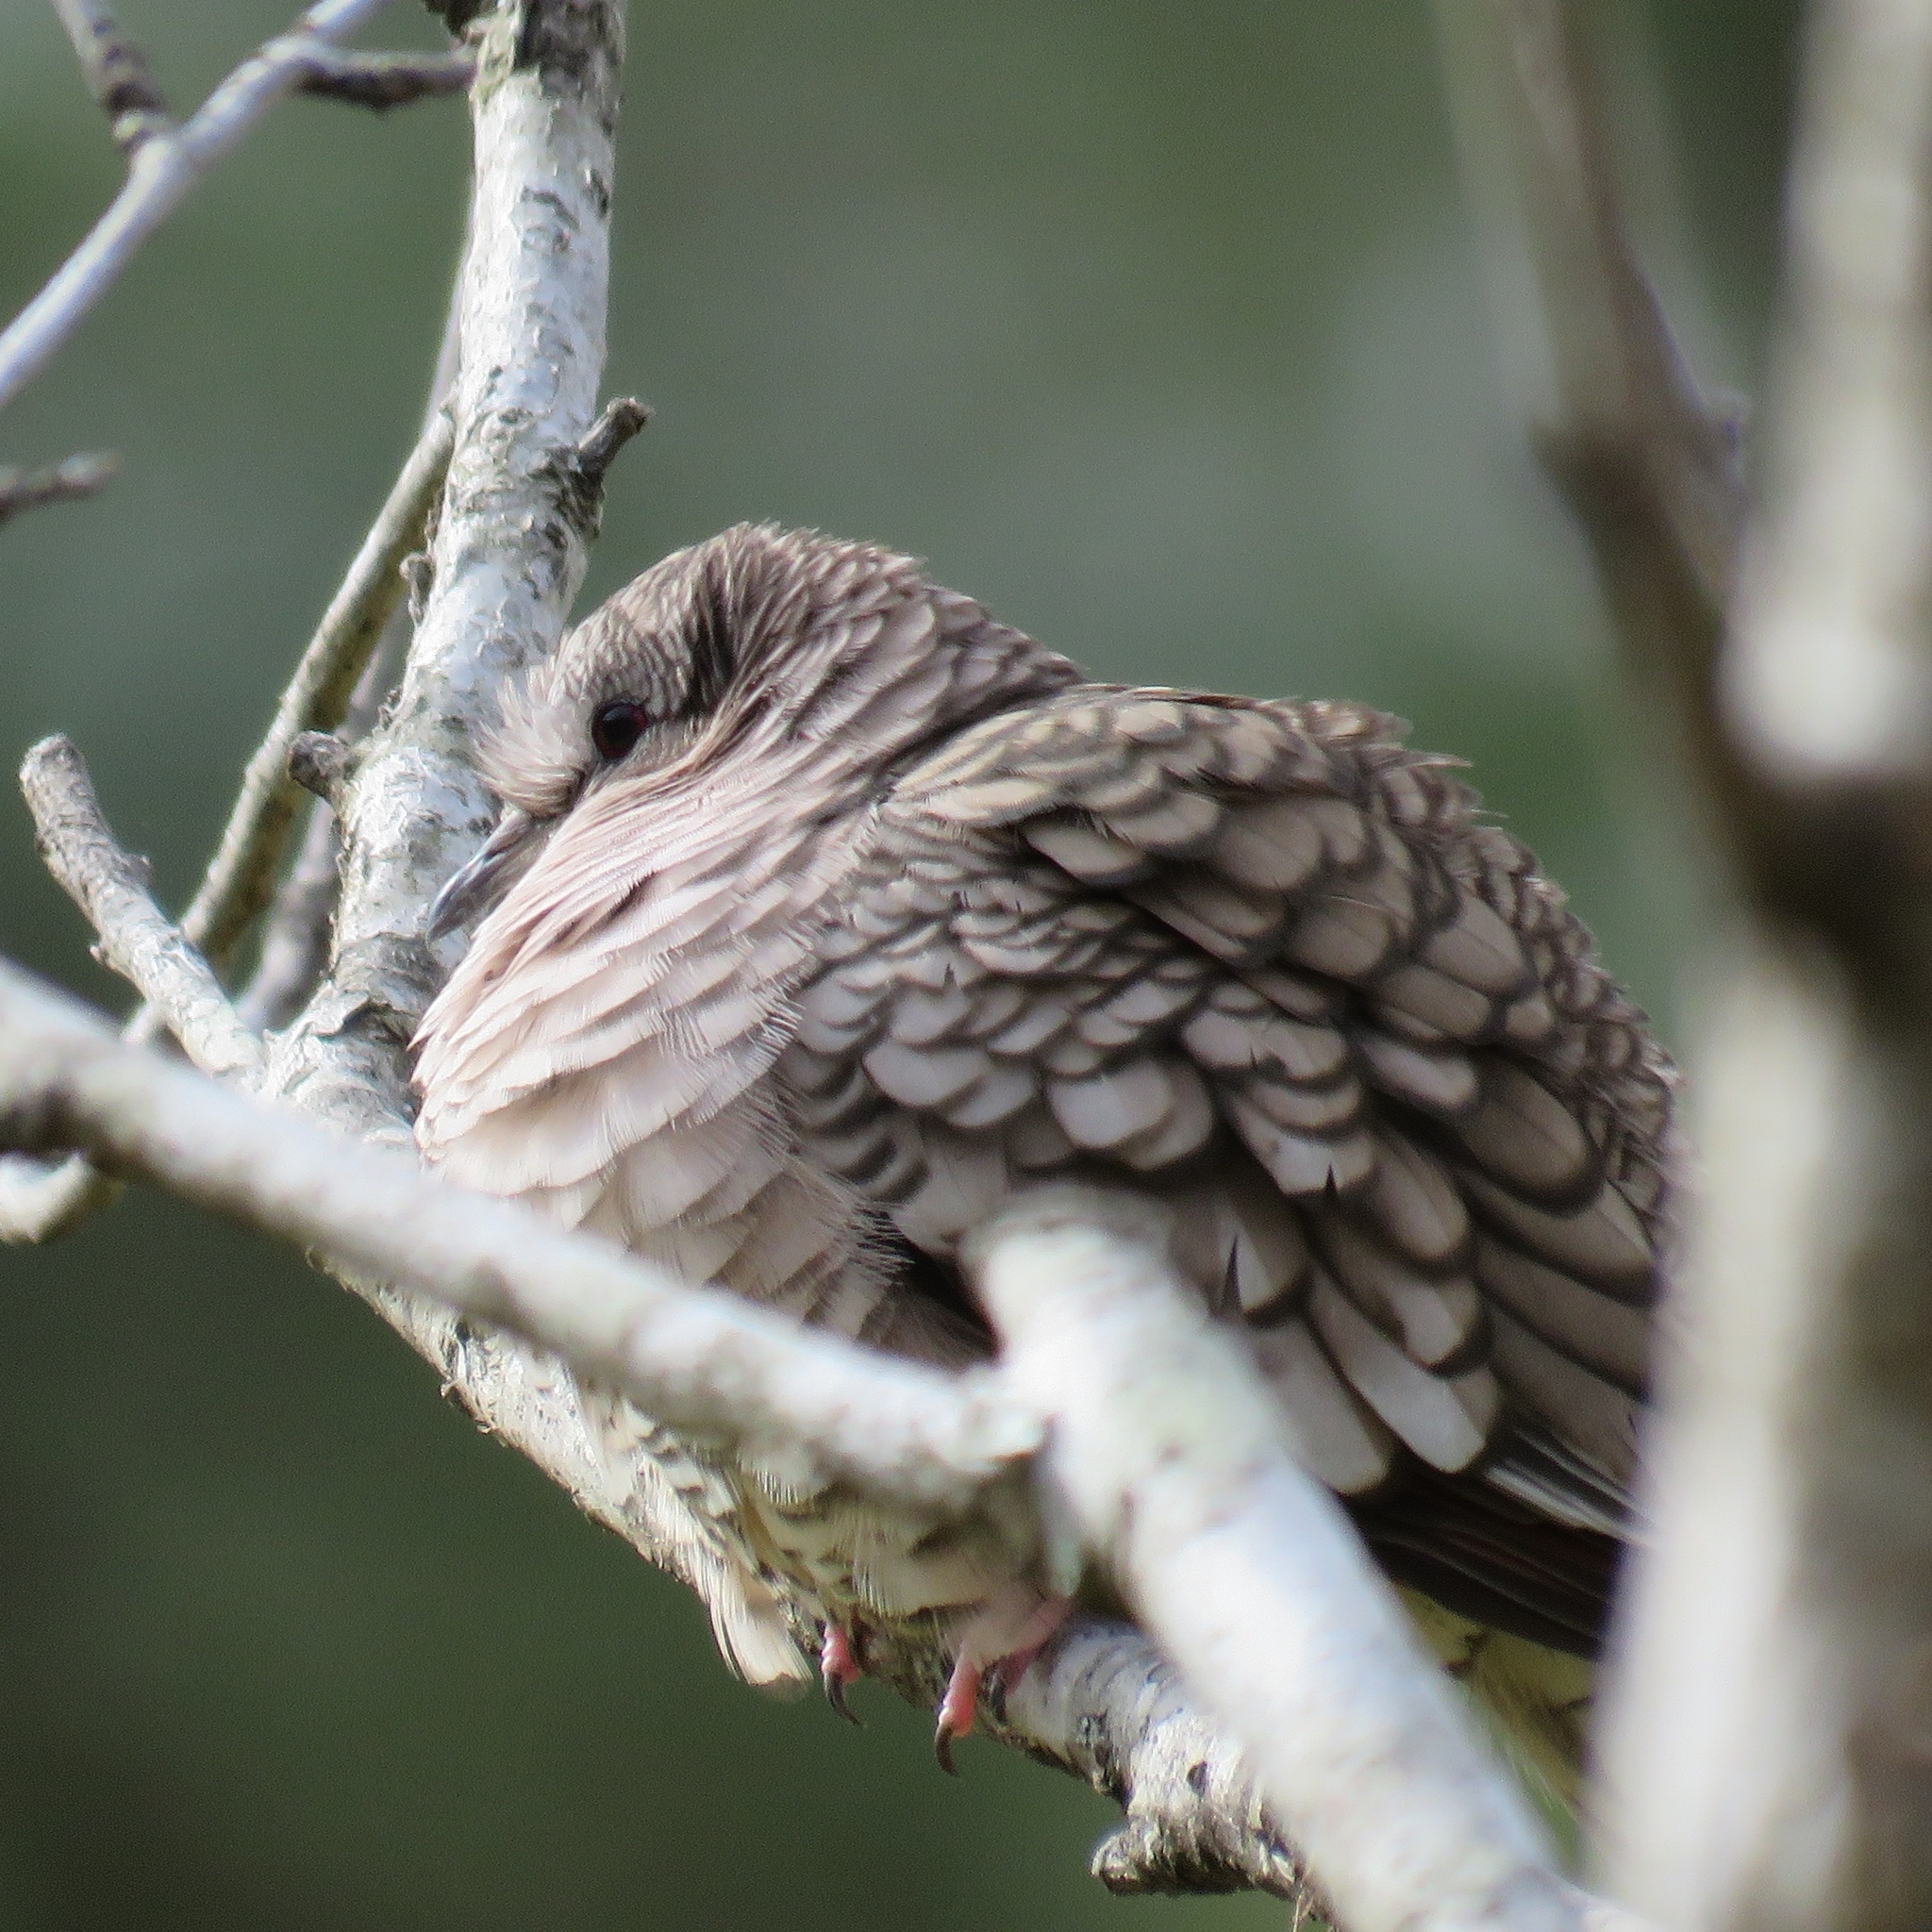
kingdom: Animalia
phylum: Chordata
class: Aves
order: Columbiformes
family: Columbidae
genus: Columbina
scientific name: Columbina inca
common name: Inca dove
